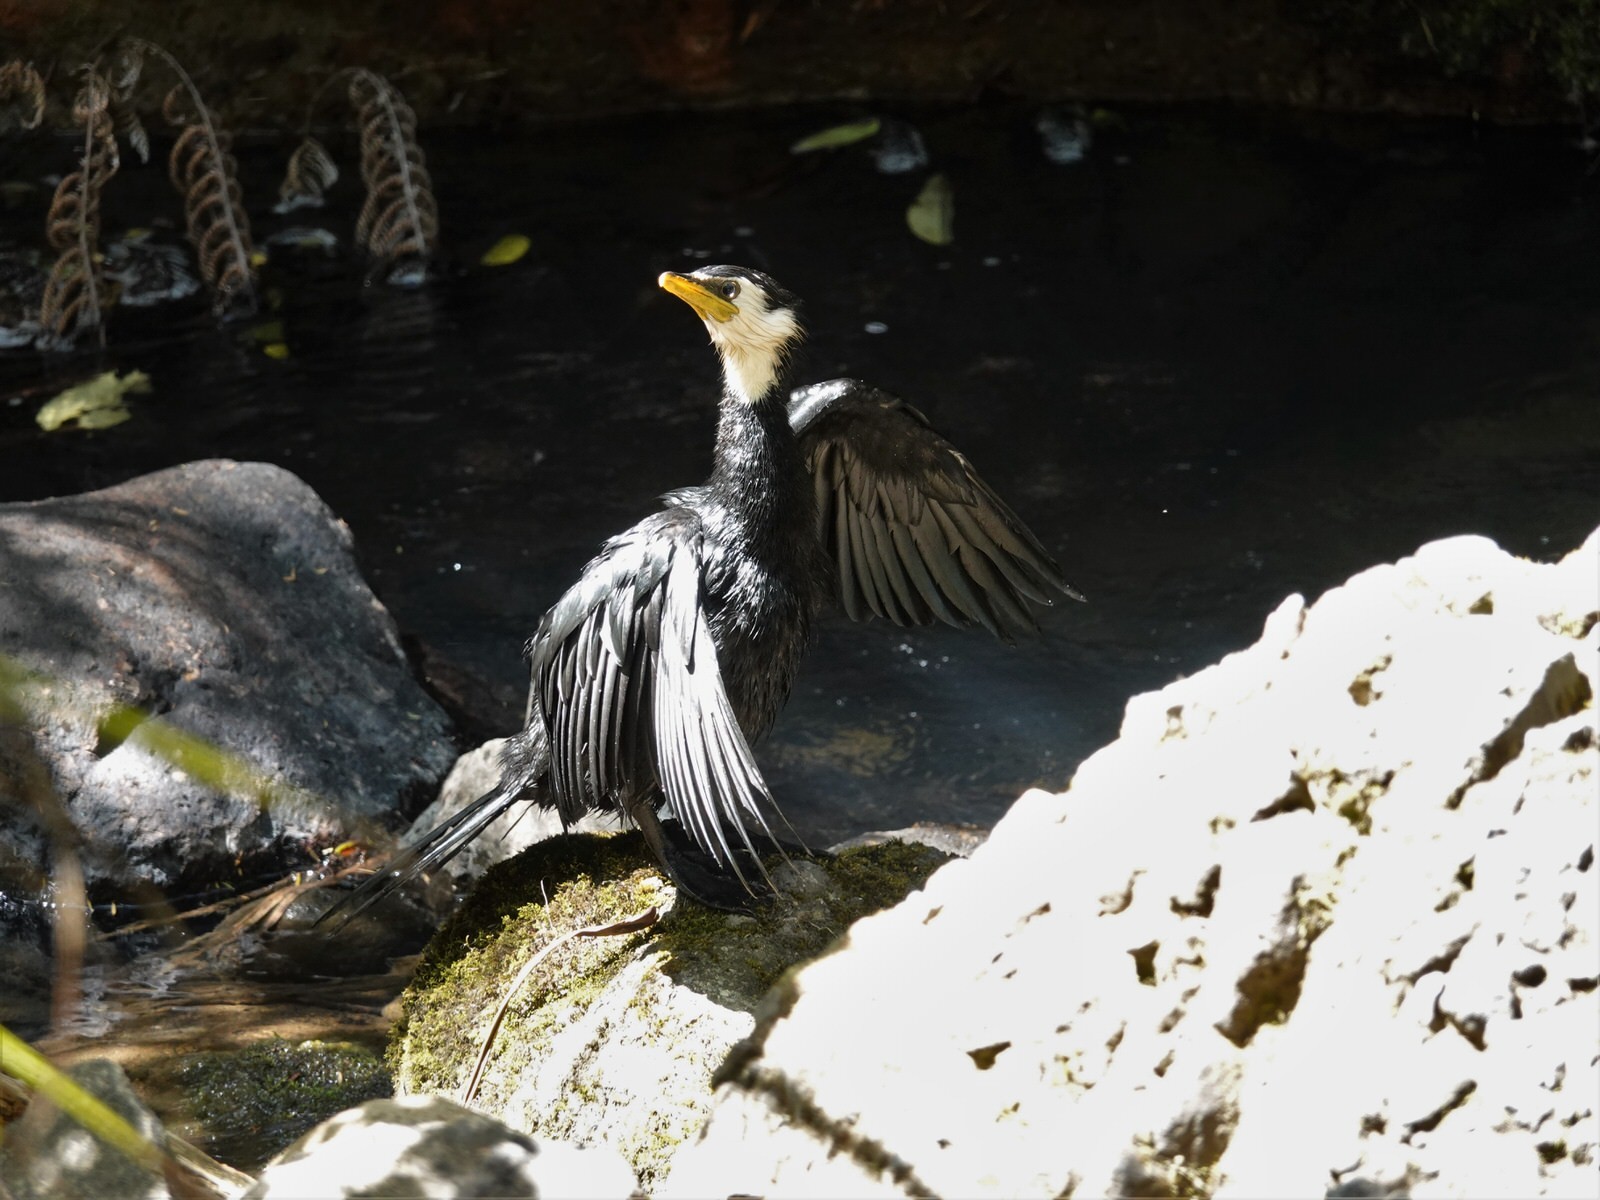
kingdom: Animalia
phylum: Chordata
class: Aves
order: Suliformes
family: Phalacrocoracidae
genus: Microcarbo
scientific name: Microcarbo melanoleucos
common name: Little pied cormorant
